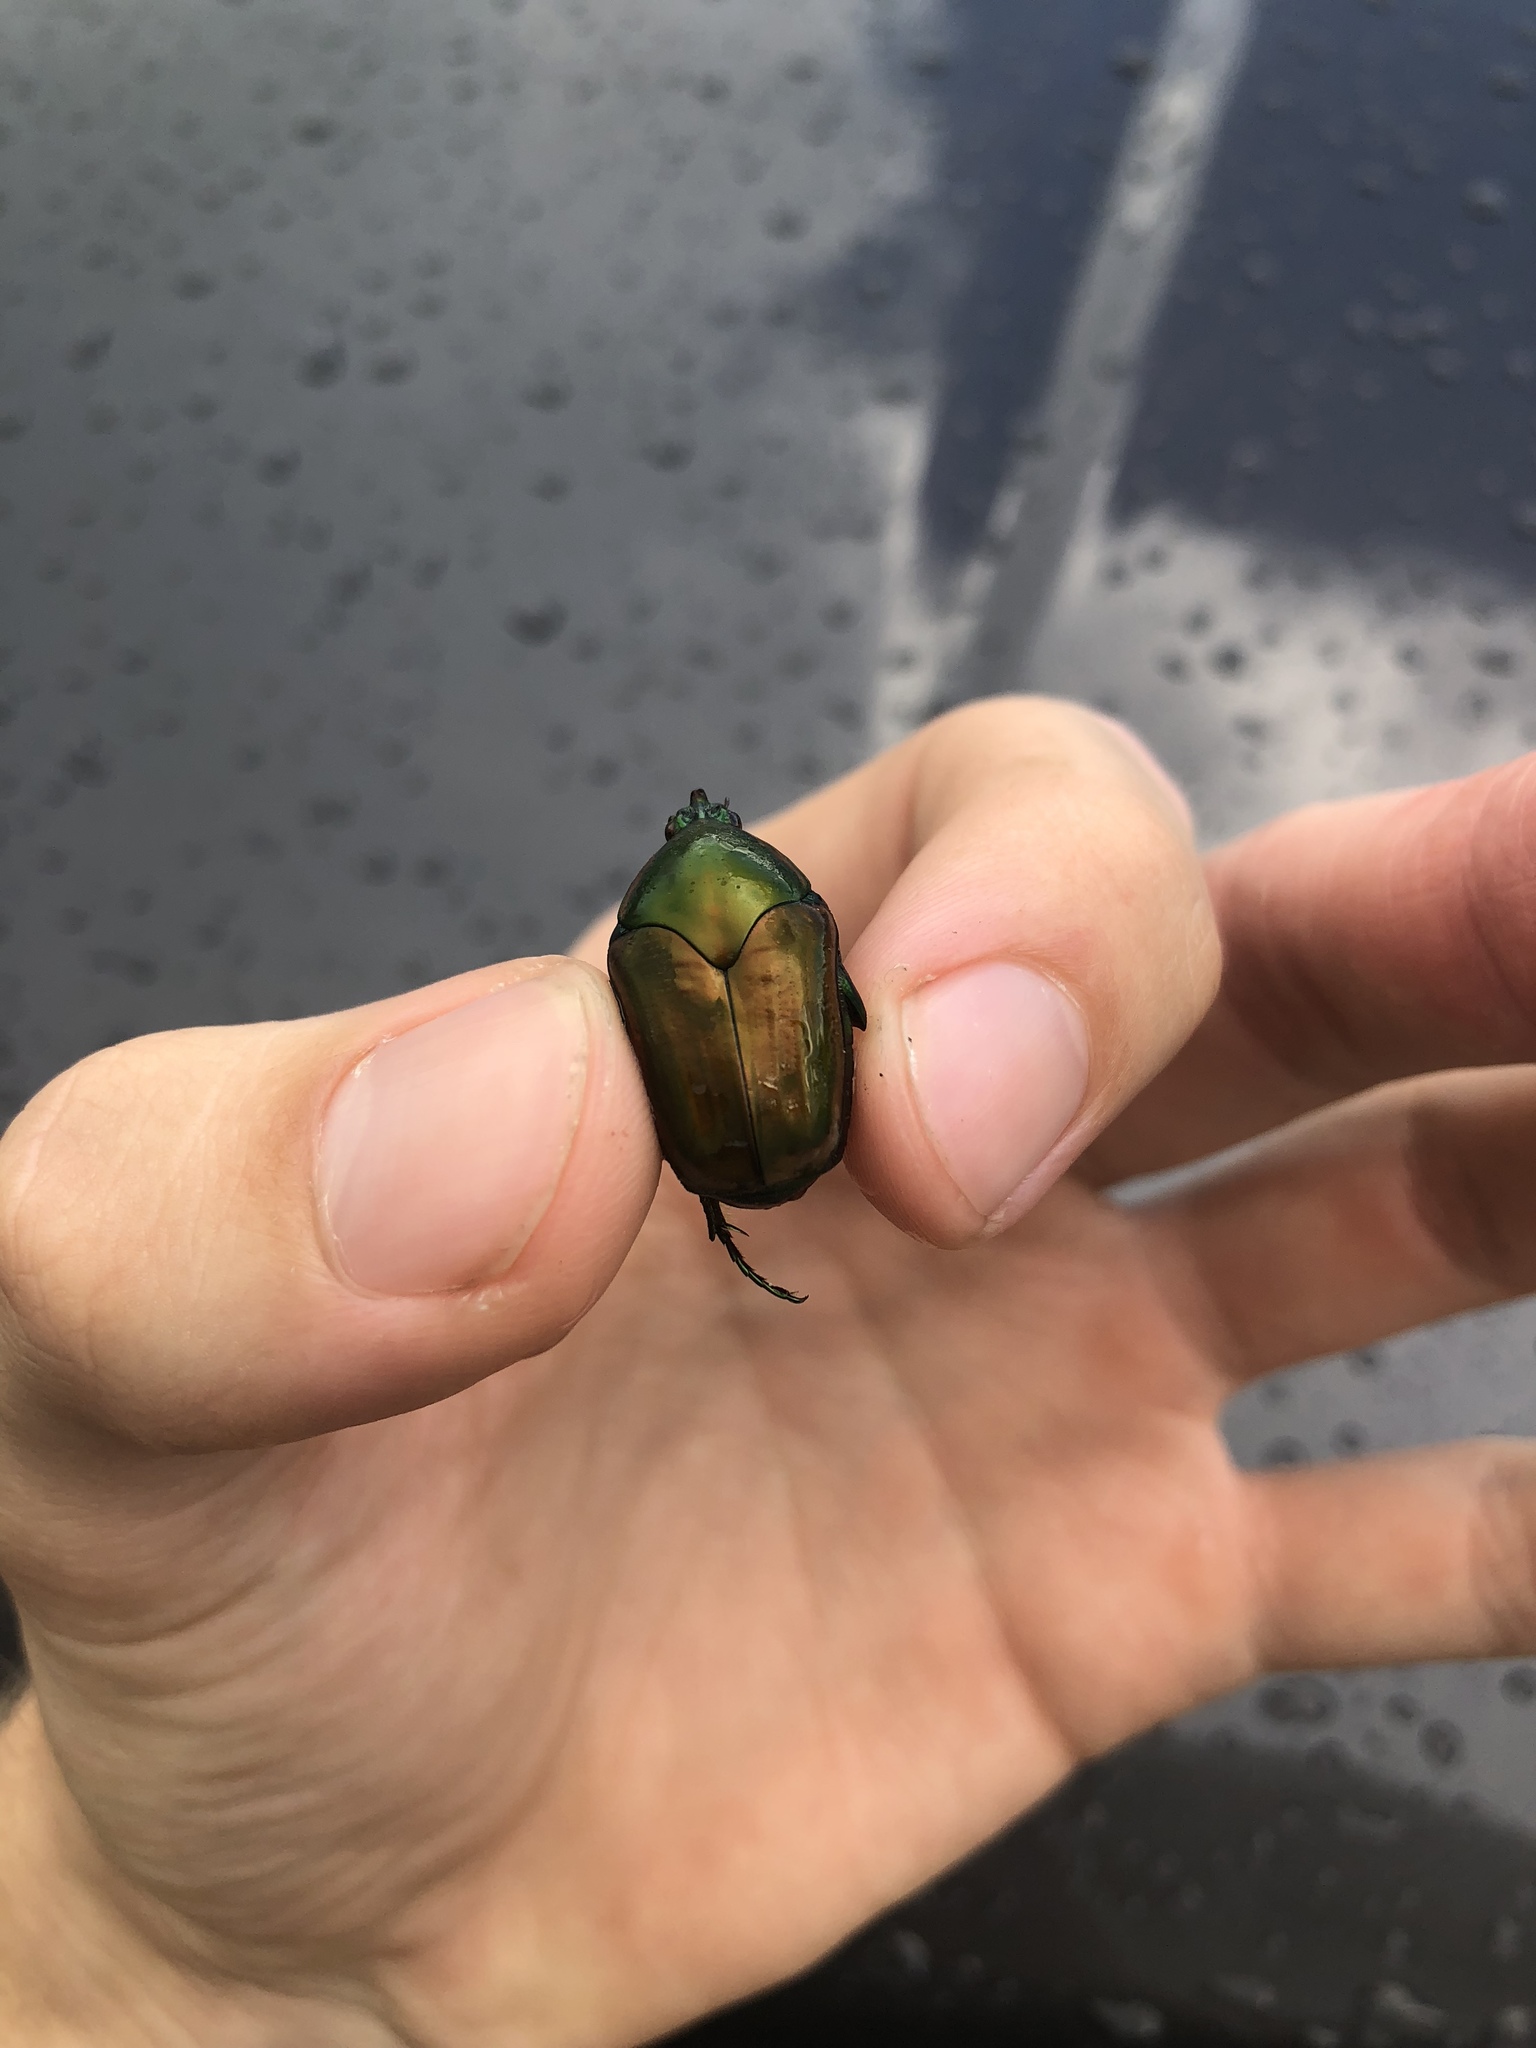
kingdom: Animalia
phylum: Arthropoda
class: Insecta
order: Coleoptera
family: Scarabaeidae
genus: Cotinis
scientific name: Cotinis nitida
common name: Common green june beetle
